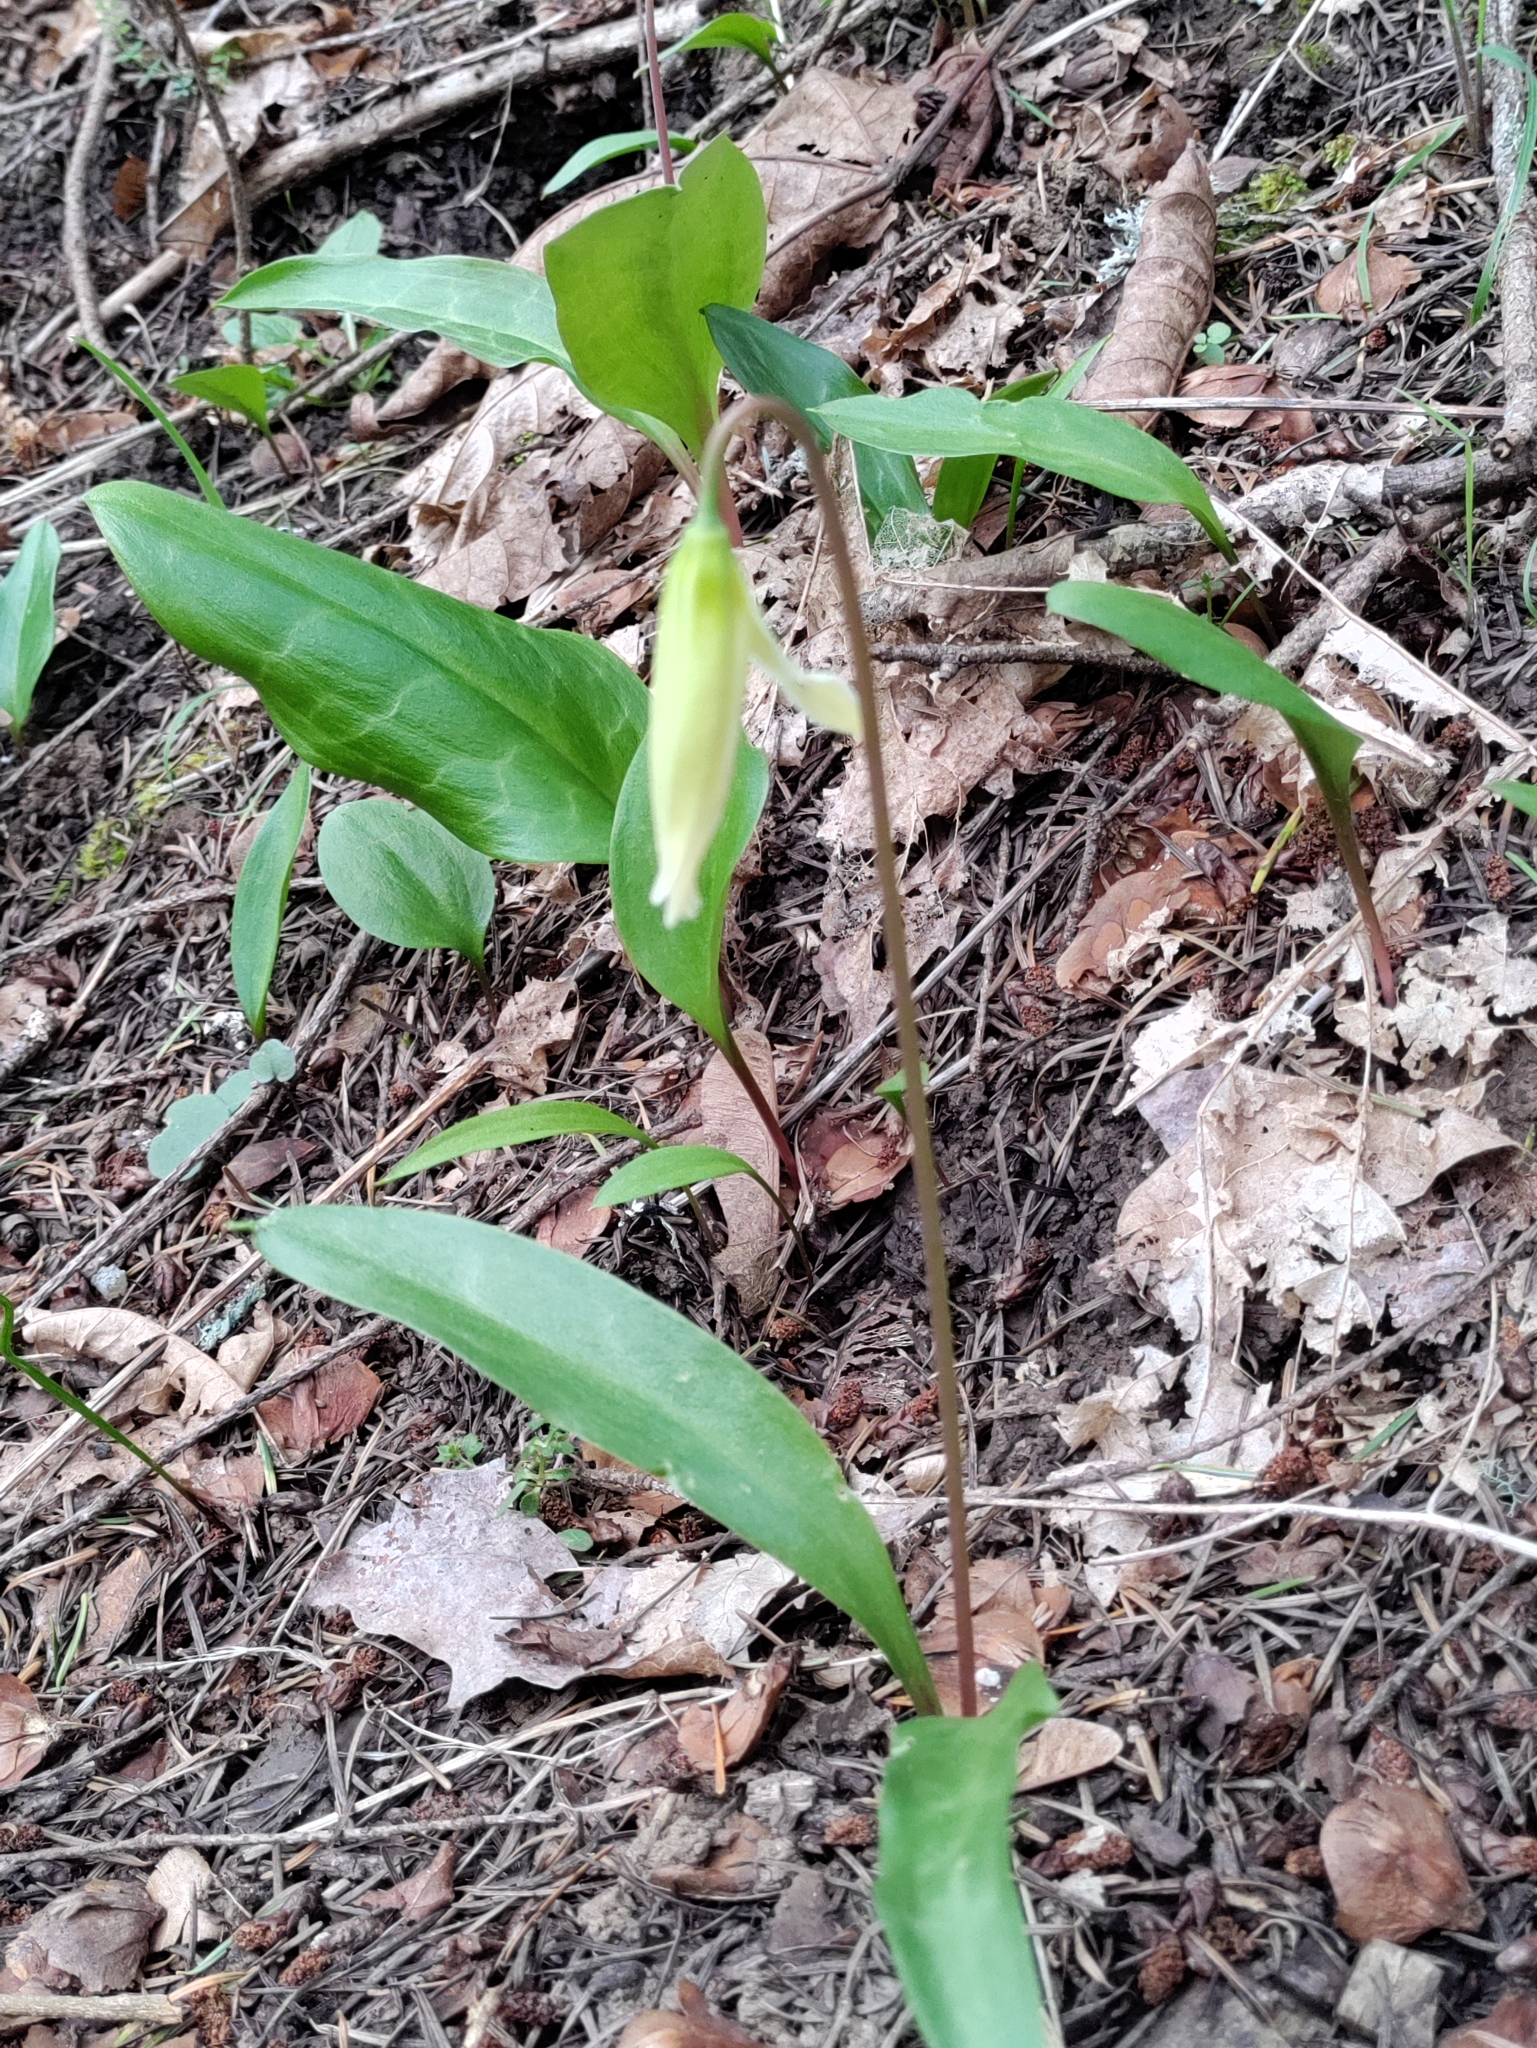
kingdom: Plantae
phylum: Tracheophyta
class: Liliopsida
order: Liliales
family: Liliaceae
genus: Erythronium
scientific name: Erythronium oregonum
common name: Giant adder's-tongue
